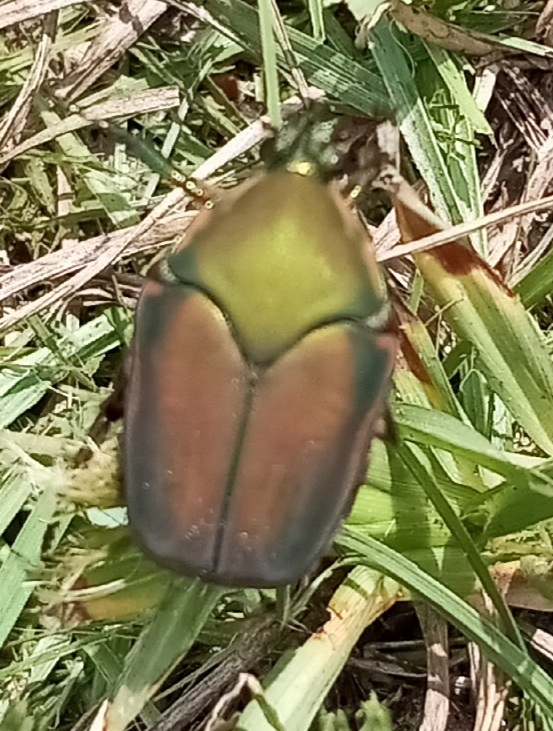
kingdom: Animalia
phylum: Arthropoda
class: Insecta
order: Coleoptera
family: Scarabaeidae
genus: Cotinis
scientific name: Cotinis nitida
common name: Common green june beetle
